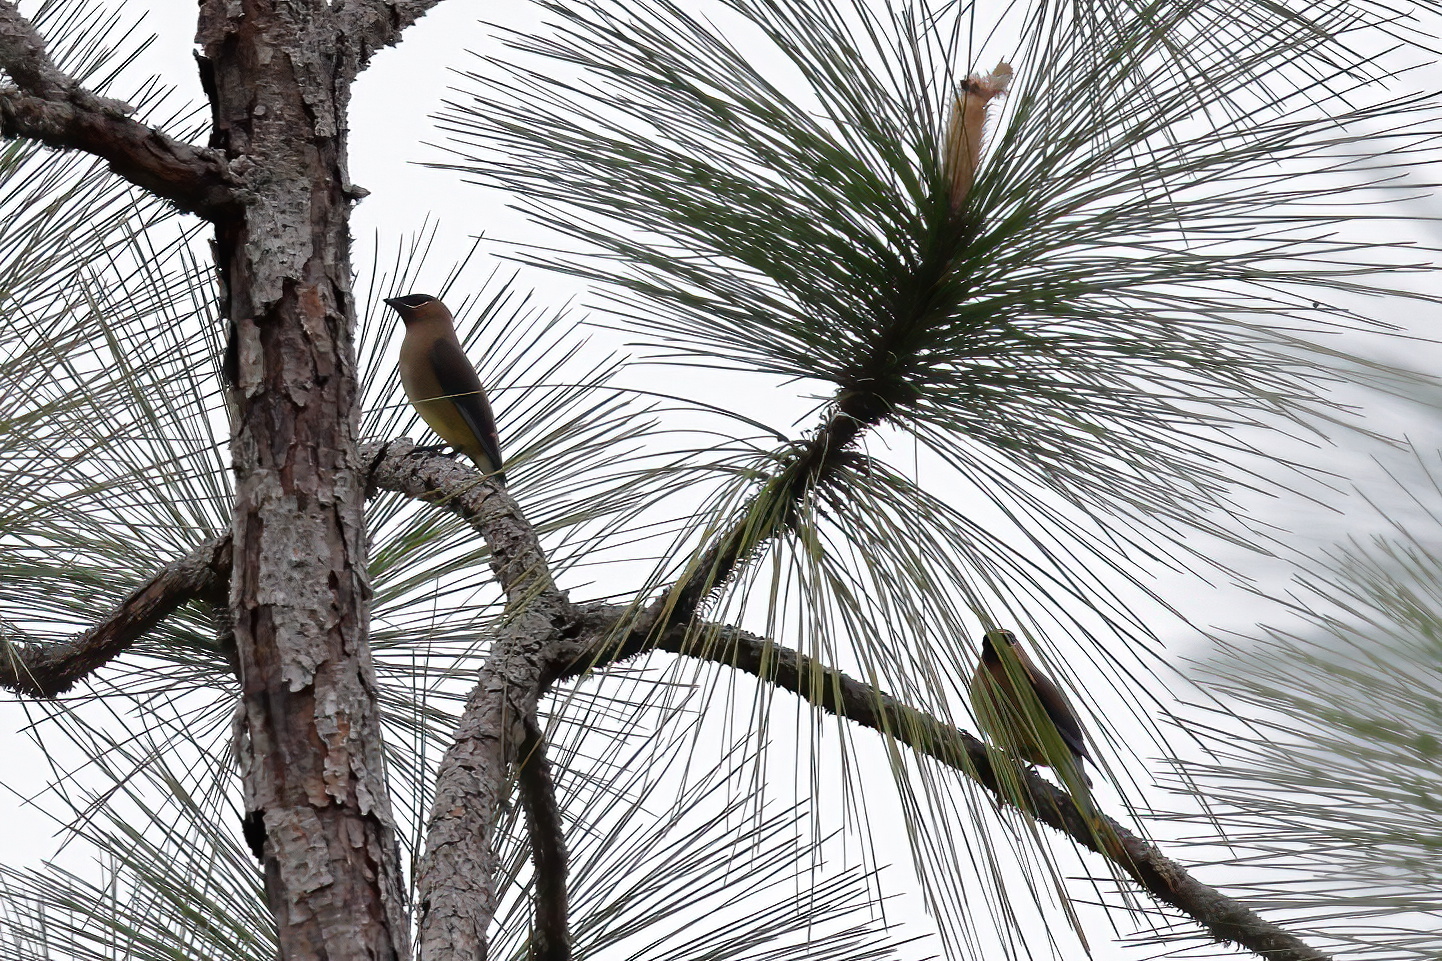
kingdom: Animalia
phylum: Chordata
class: Aves
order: Passeriformes
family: Bombycillidae
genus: Bombycilla
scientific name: Bombycilla cedrorum
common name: Cedar waxwing
